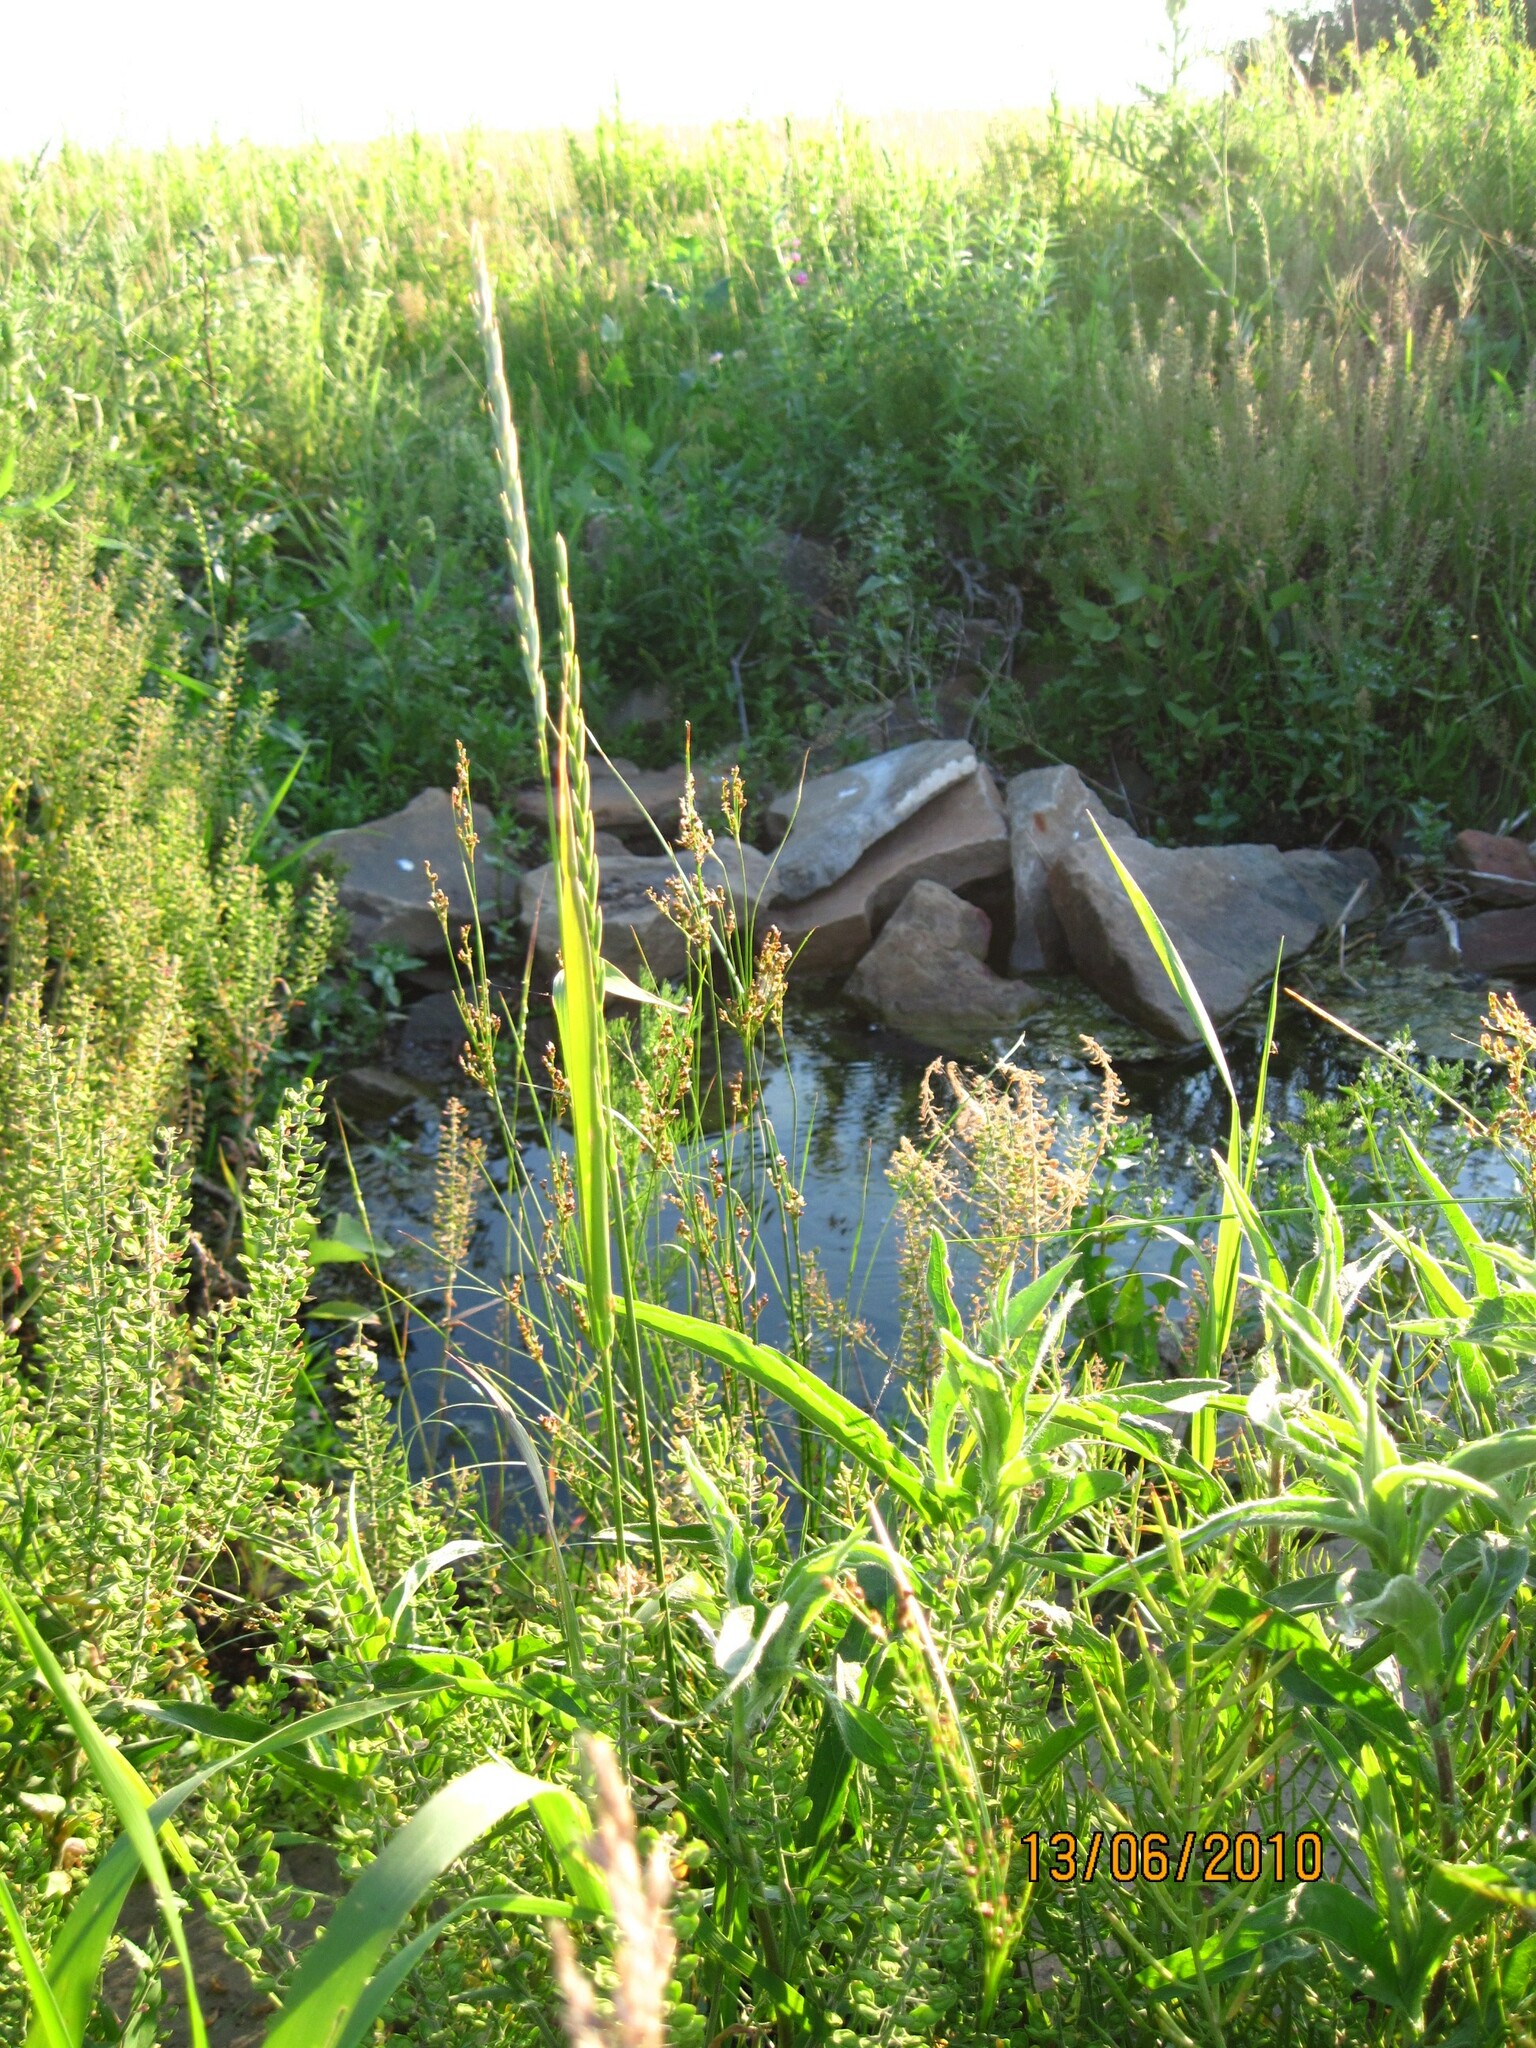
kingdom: Plantae
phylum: Tracheophyta
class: Magnoliopsida
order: Brassicales
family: Brassicaceae
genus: Lepidium
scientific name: Lepidium campestre
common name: Field pepperwort
